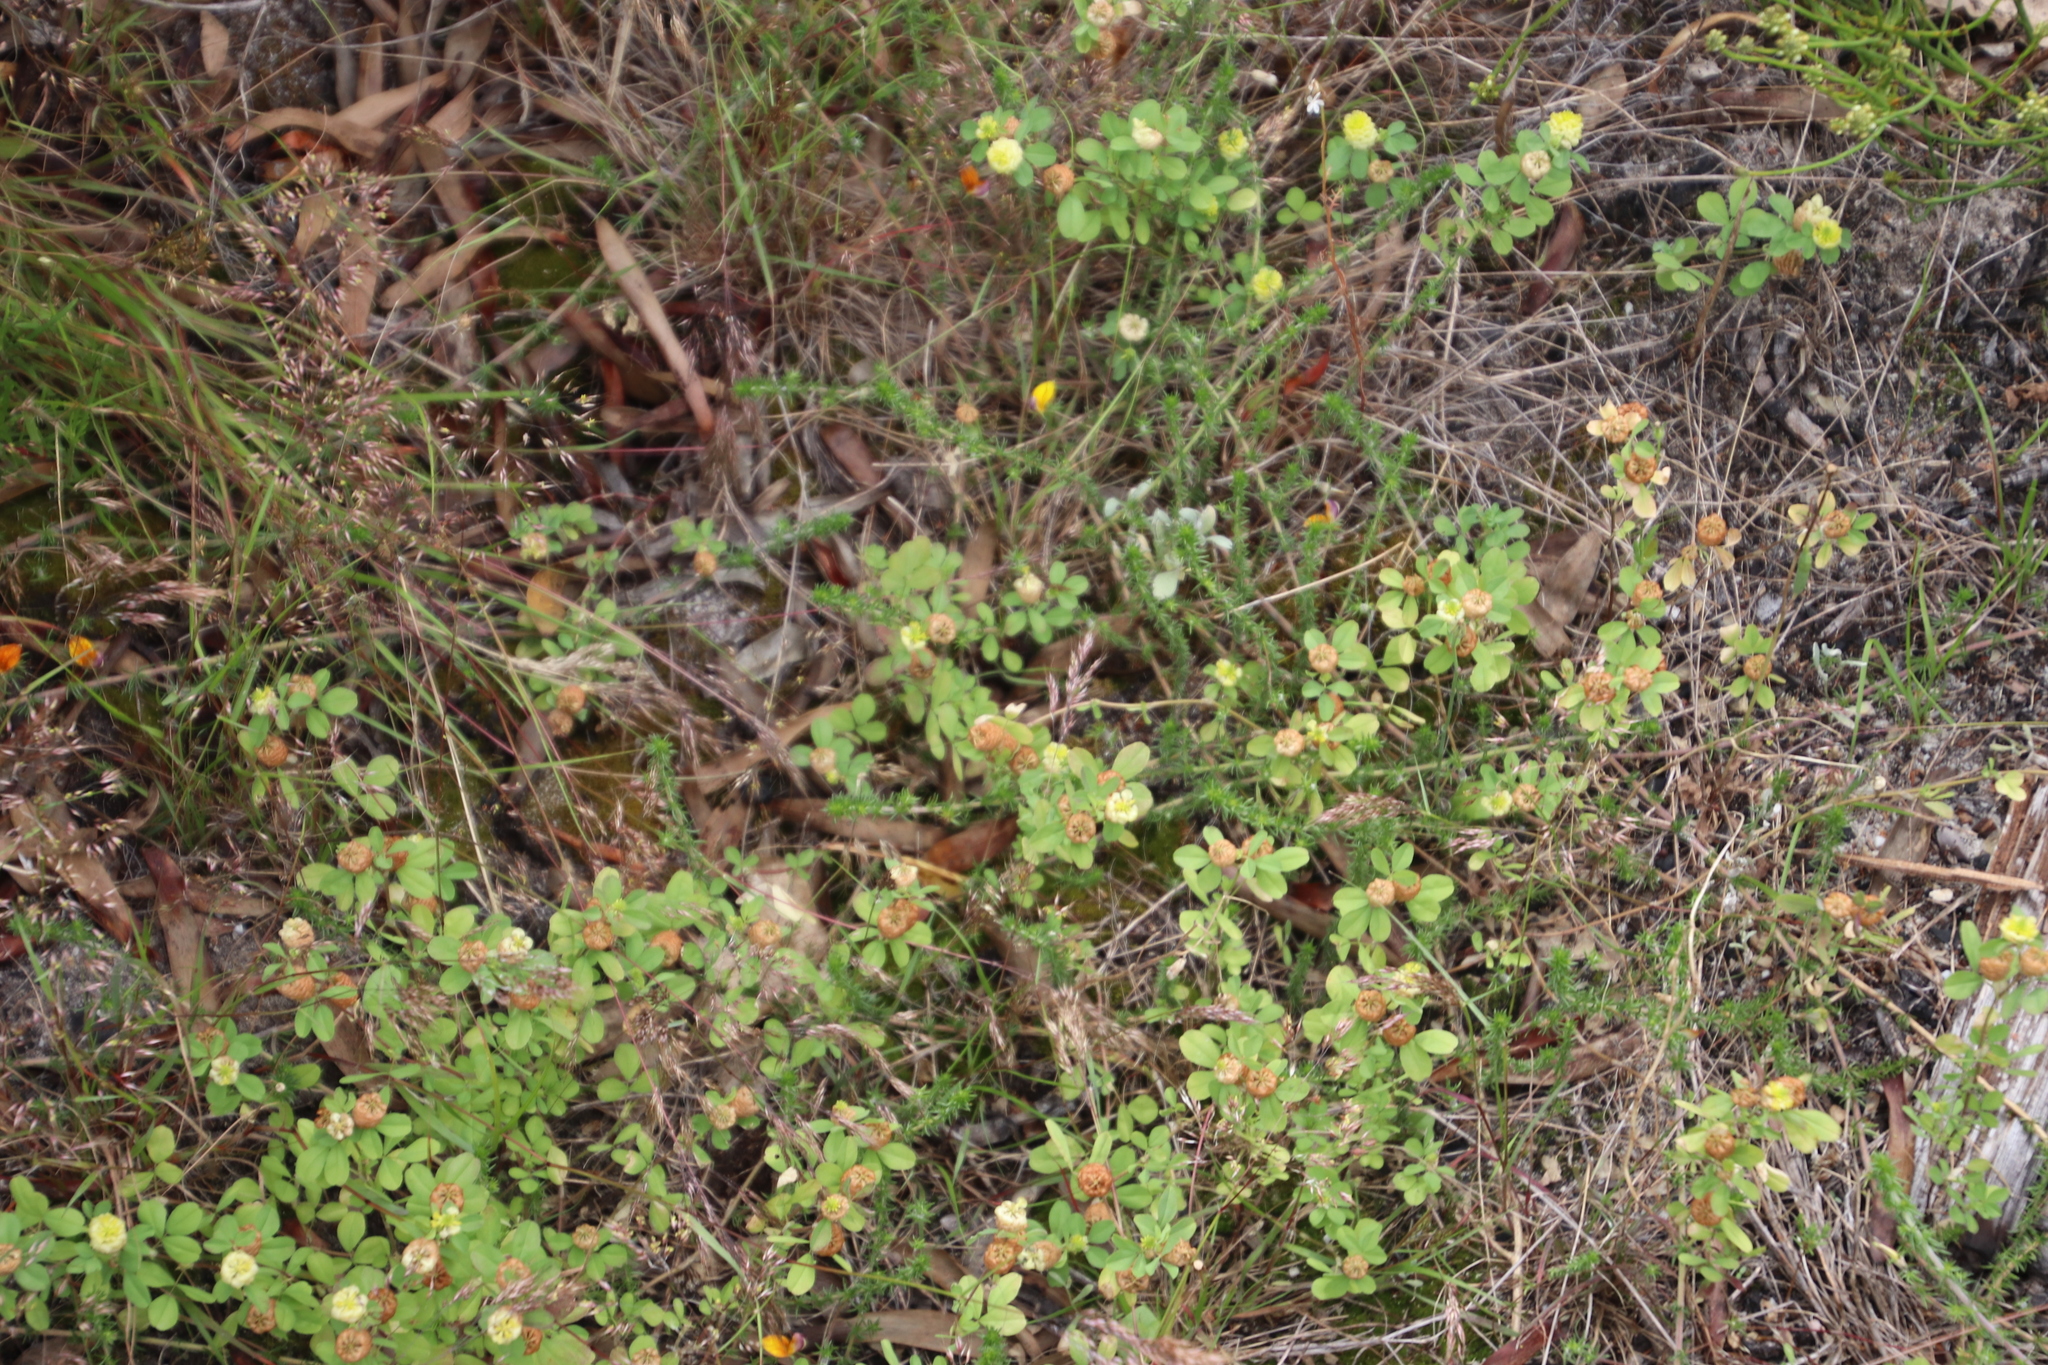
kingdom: Plantae
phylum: Tracheophyta
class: Magnoliopsida
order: Fabales
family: Fabaceae
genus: Trifolium
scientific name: Trifolium campestre
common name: Field clover
